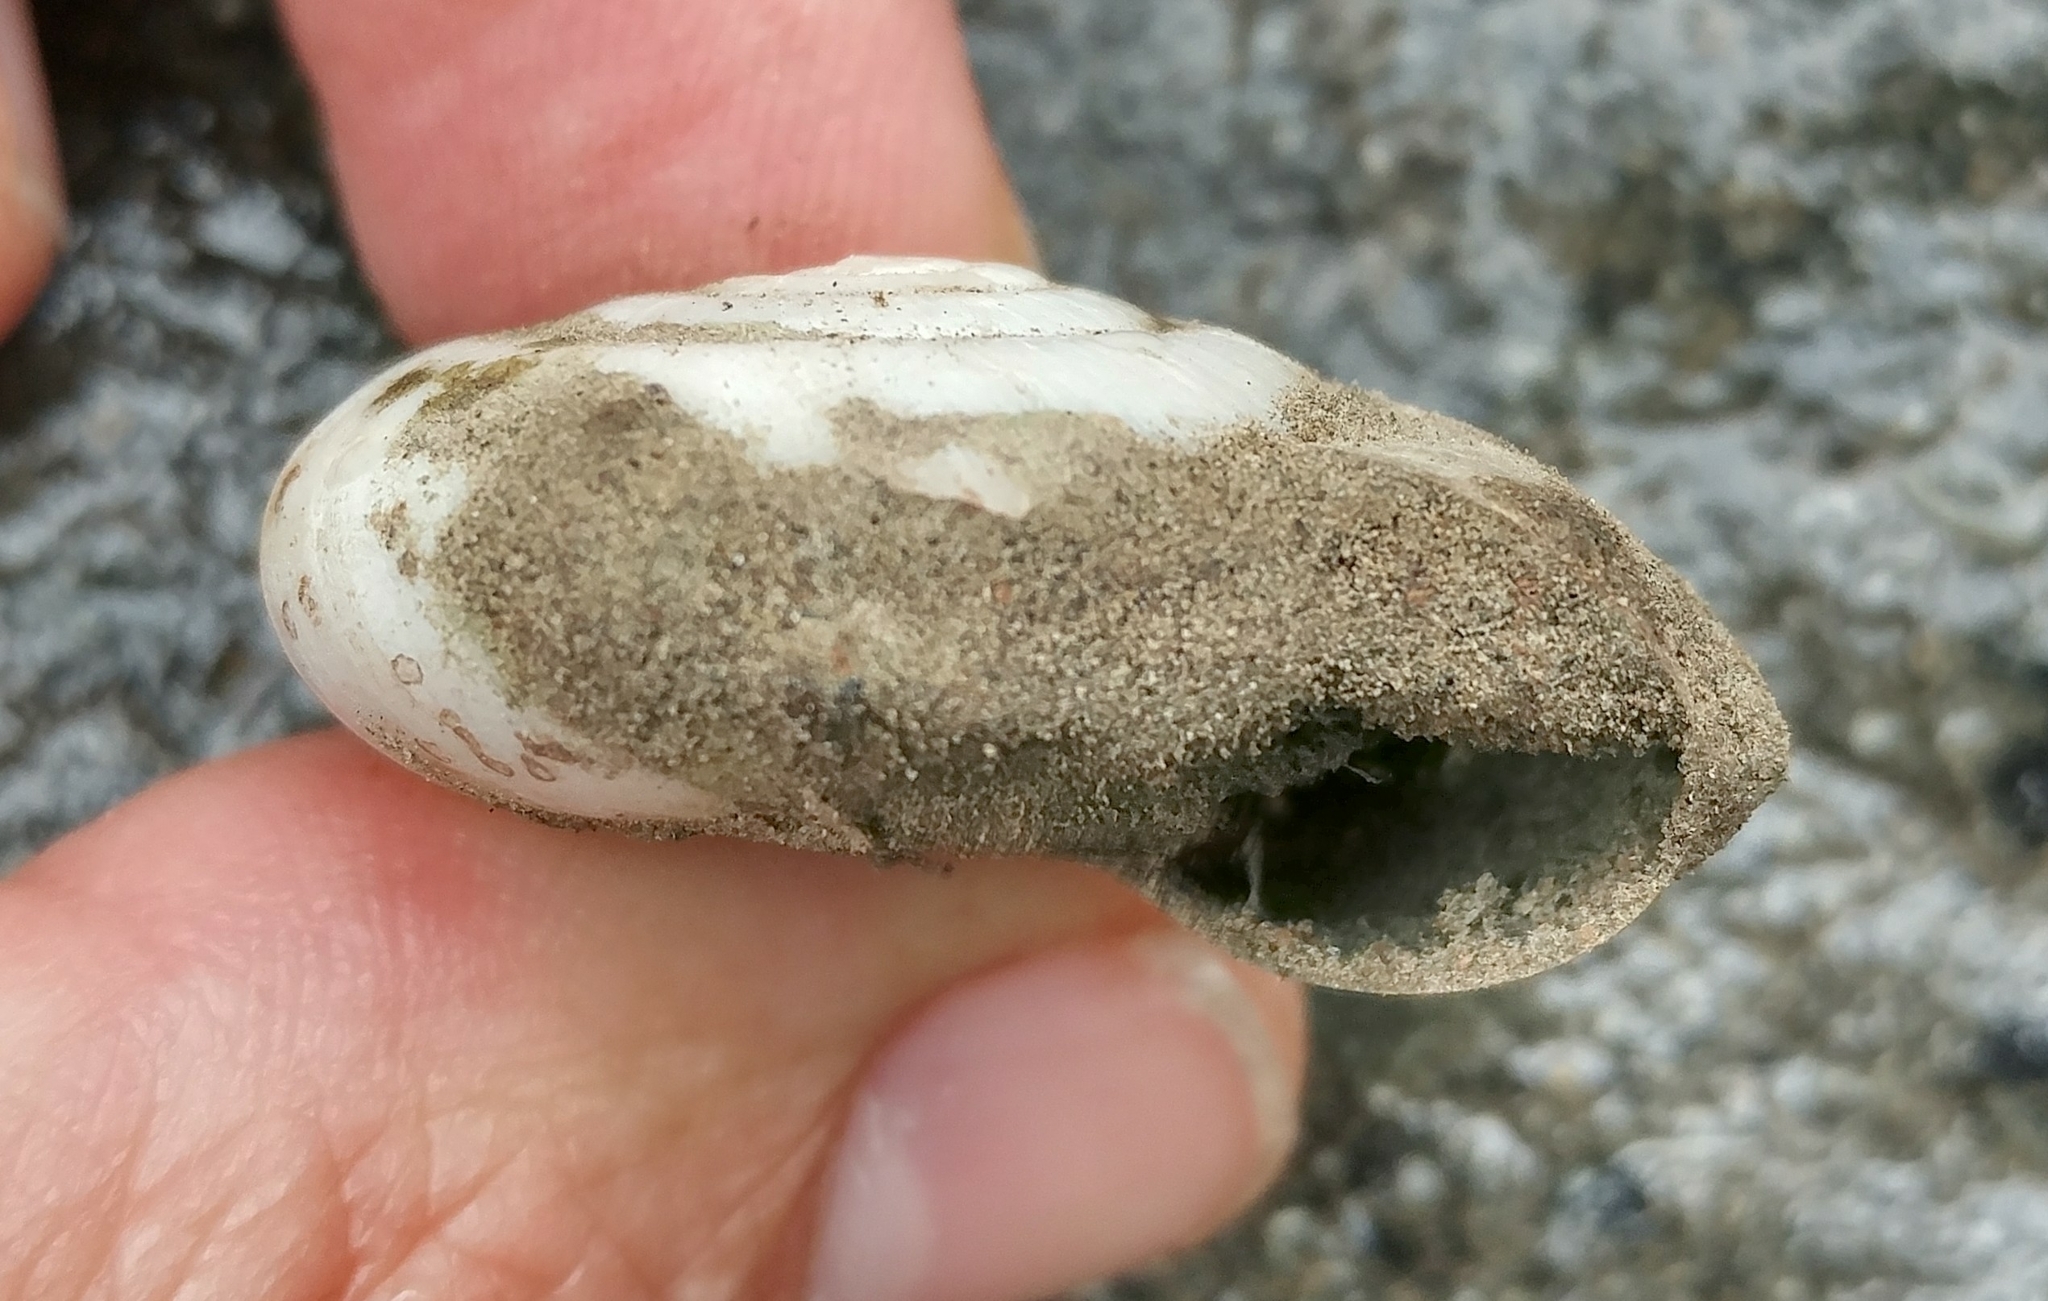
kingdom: Animalia
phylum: Mollusca
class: Gastropoda
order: Stylommatophora
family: Megomphicidae
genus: Glyptostoma
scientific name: Glyptostoma newberryanum
